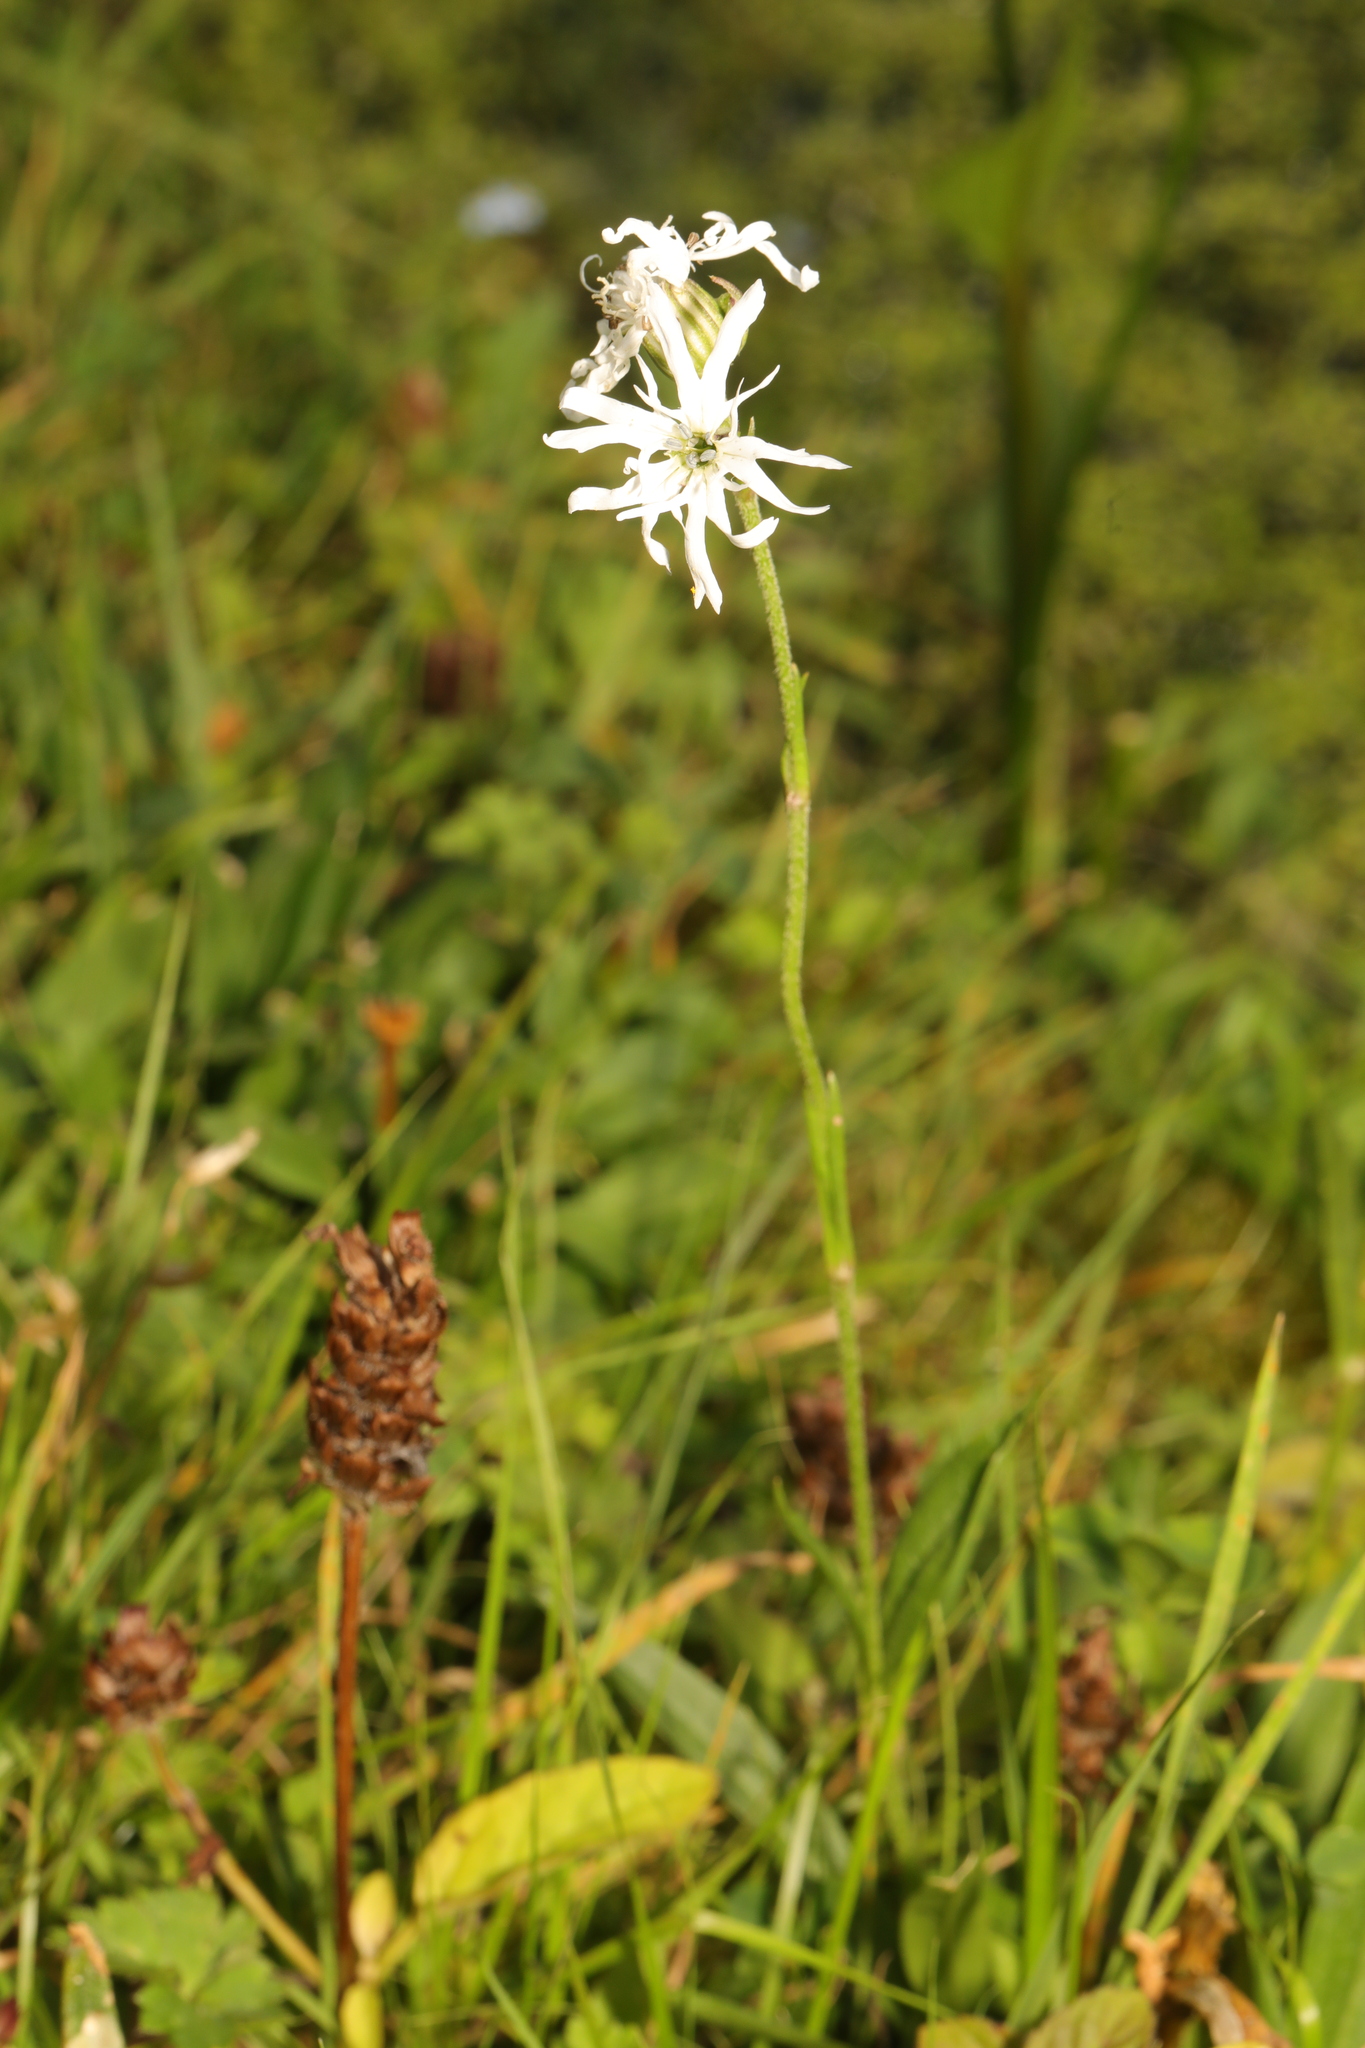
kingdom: Plantae
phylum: Tracheophyta
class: Magnoliopsida
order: Caryophyllales
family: Caryophyllaceae
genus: Silene
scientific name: Silene flos-cuculi
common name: Ragged-robin
